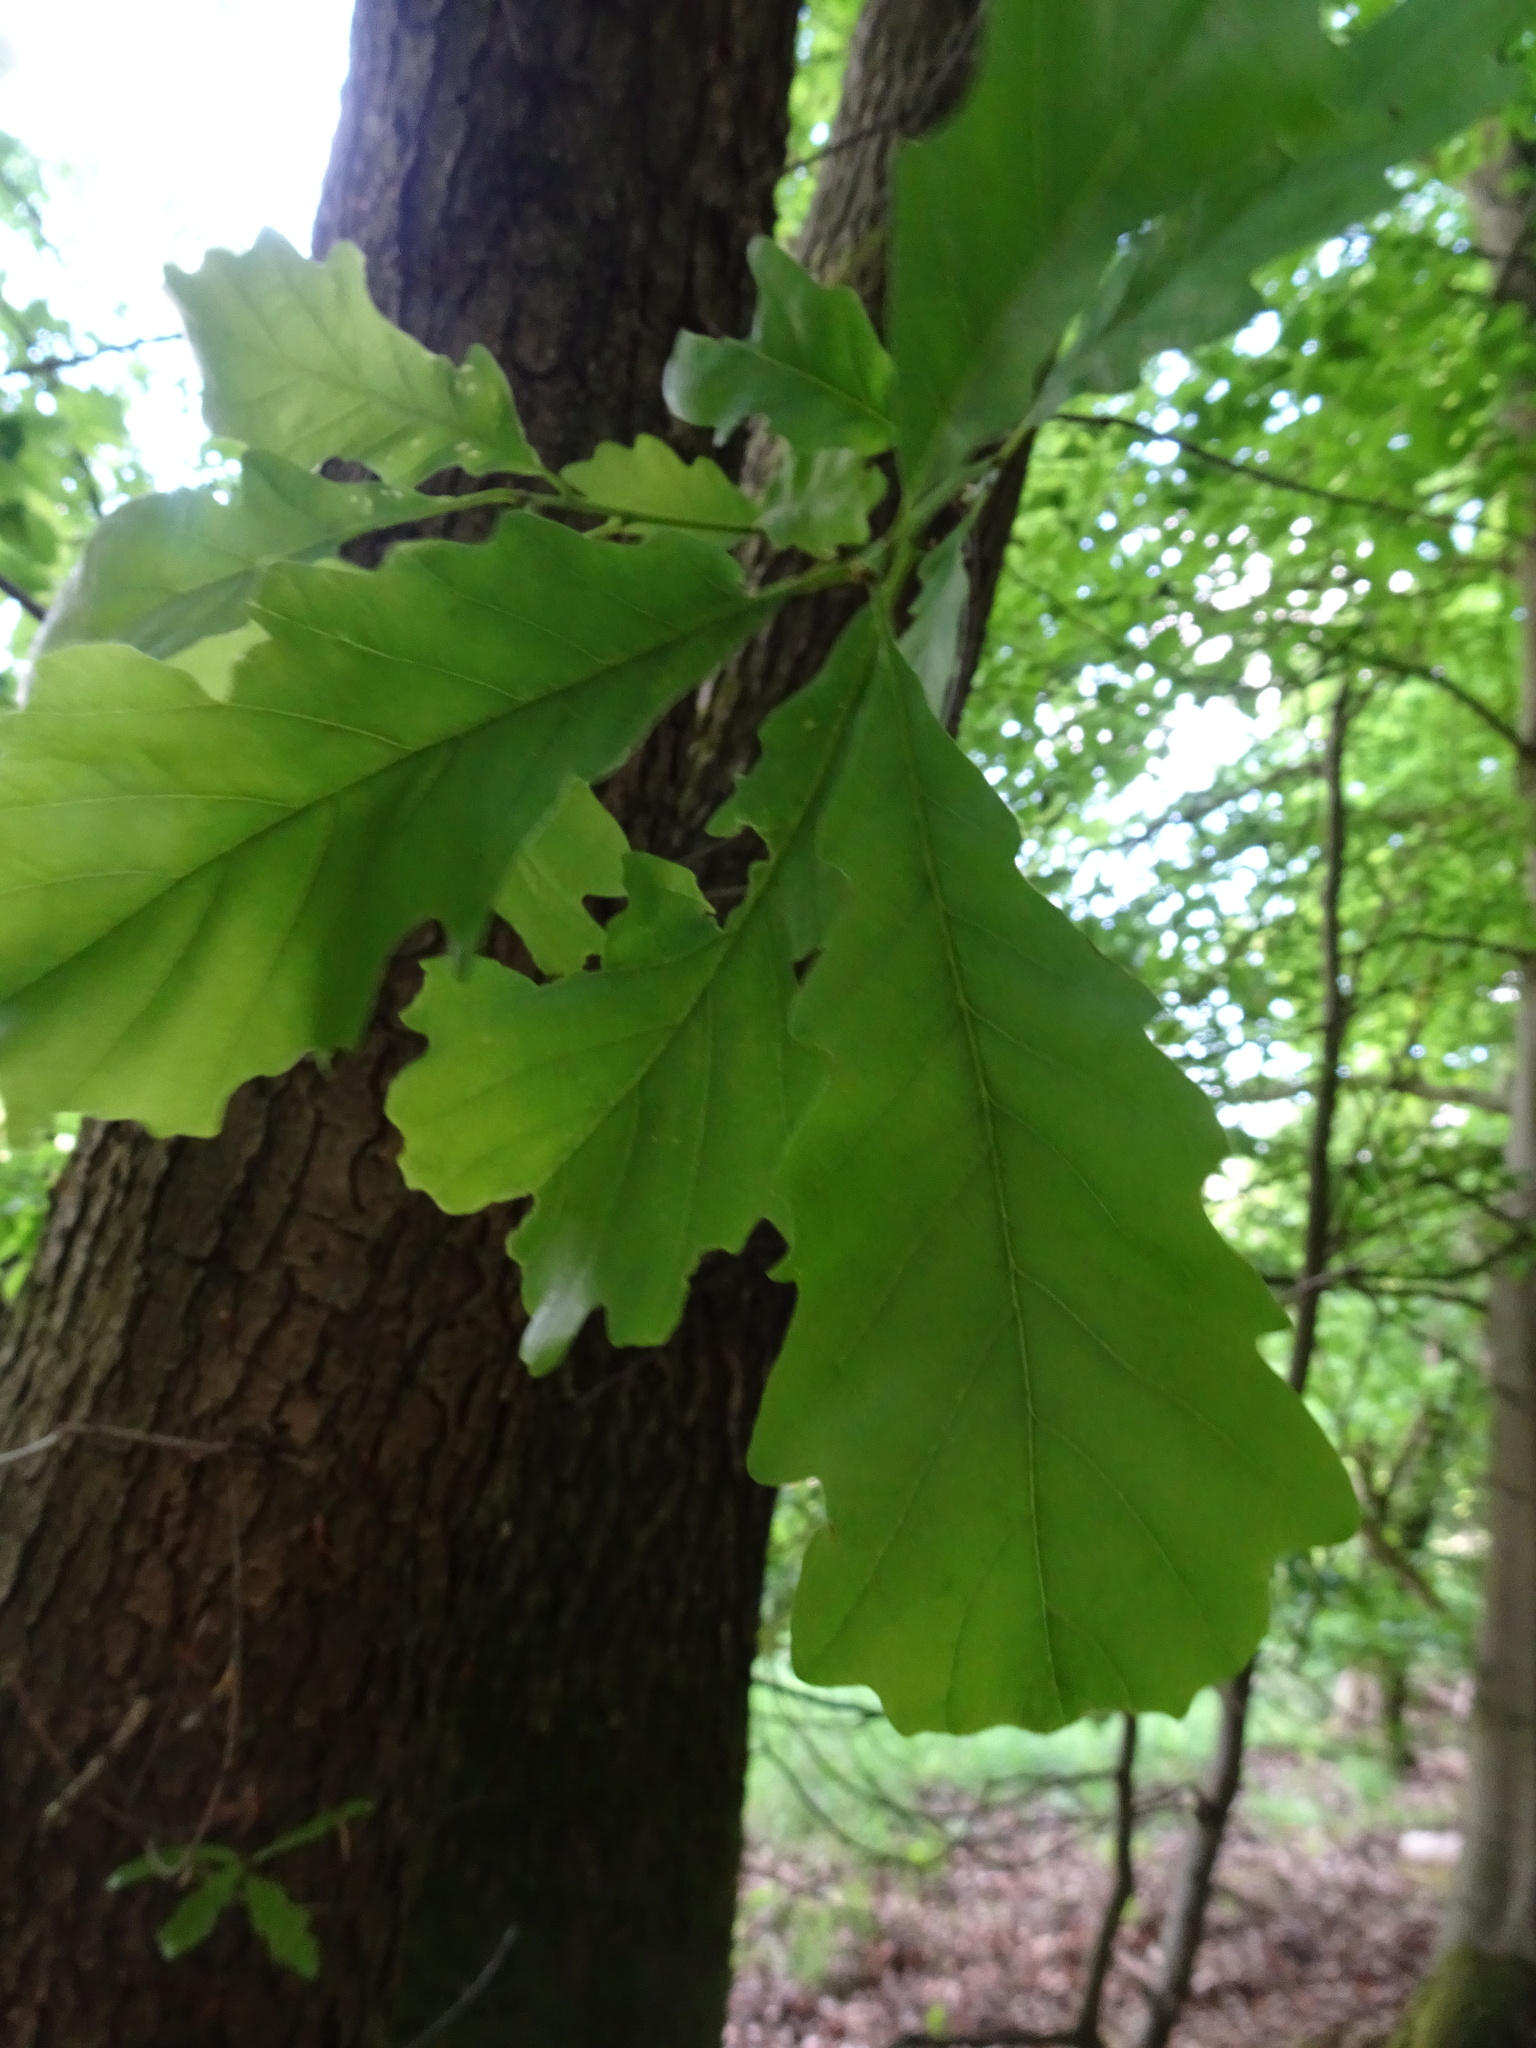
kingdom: Plantae
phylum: Tracheophyta
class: Magnoliopsida
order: Fagales
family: Fagaceae
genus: Quercus
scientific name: Quercus petraea
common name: Sessile oak
